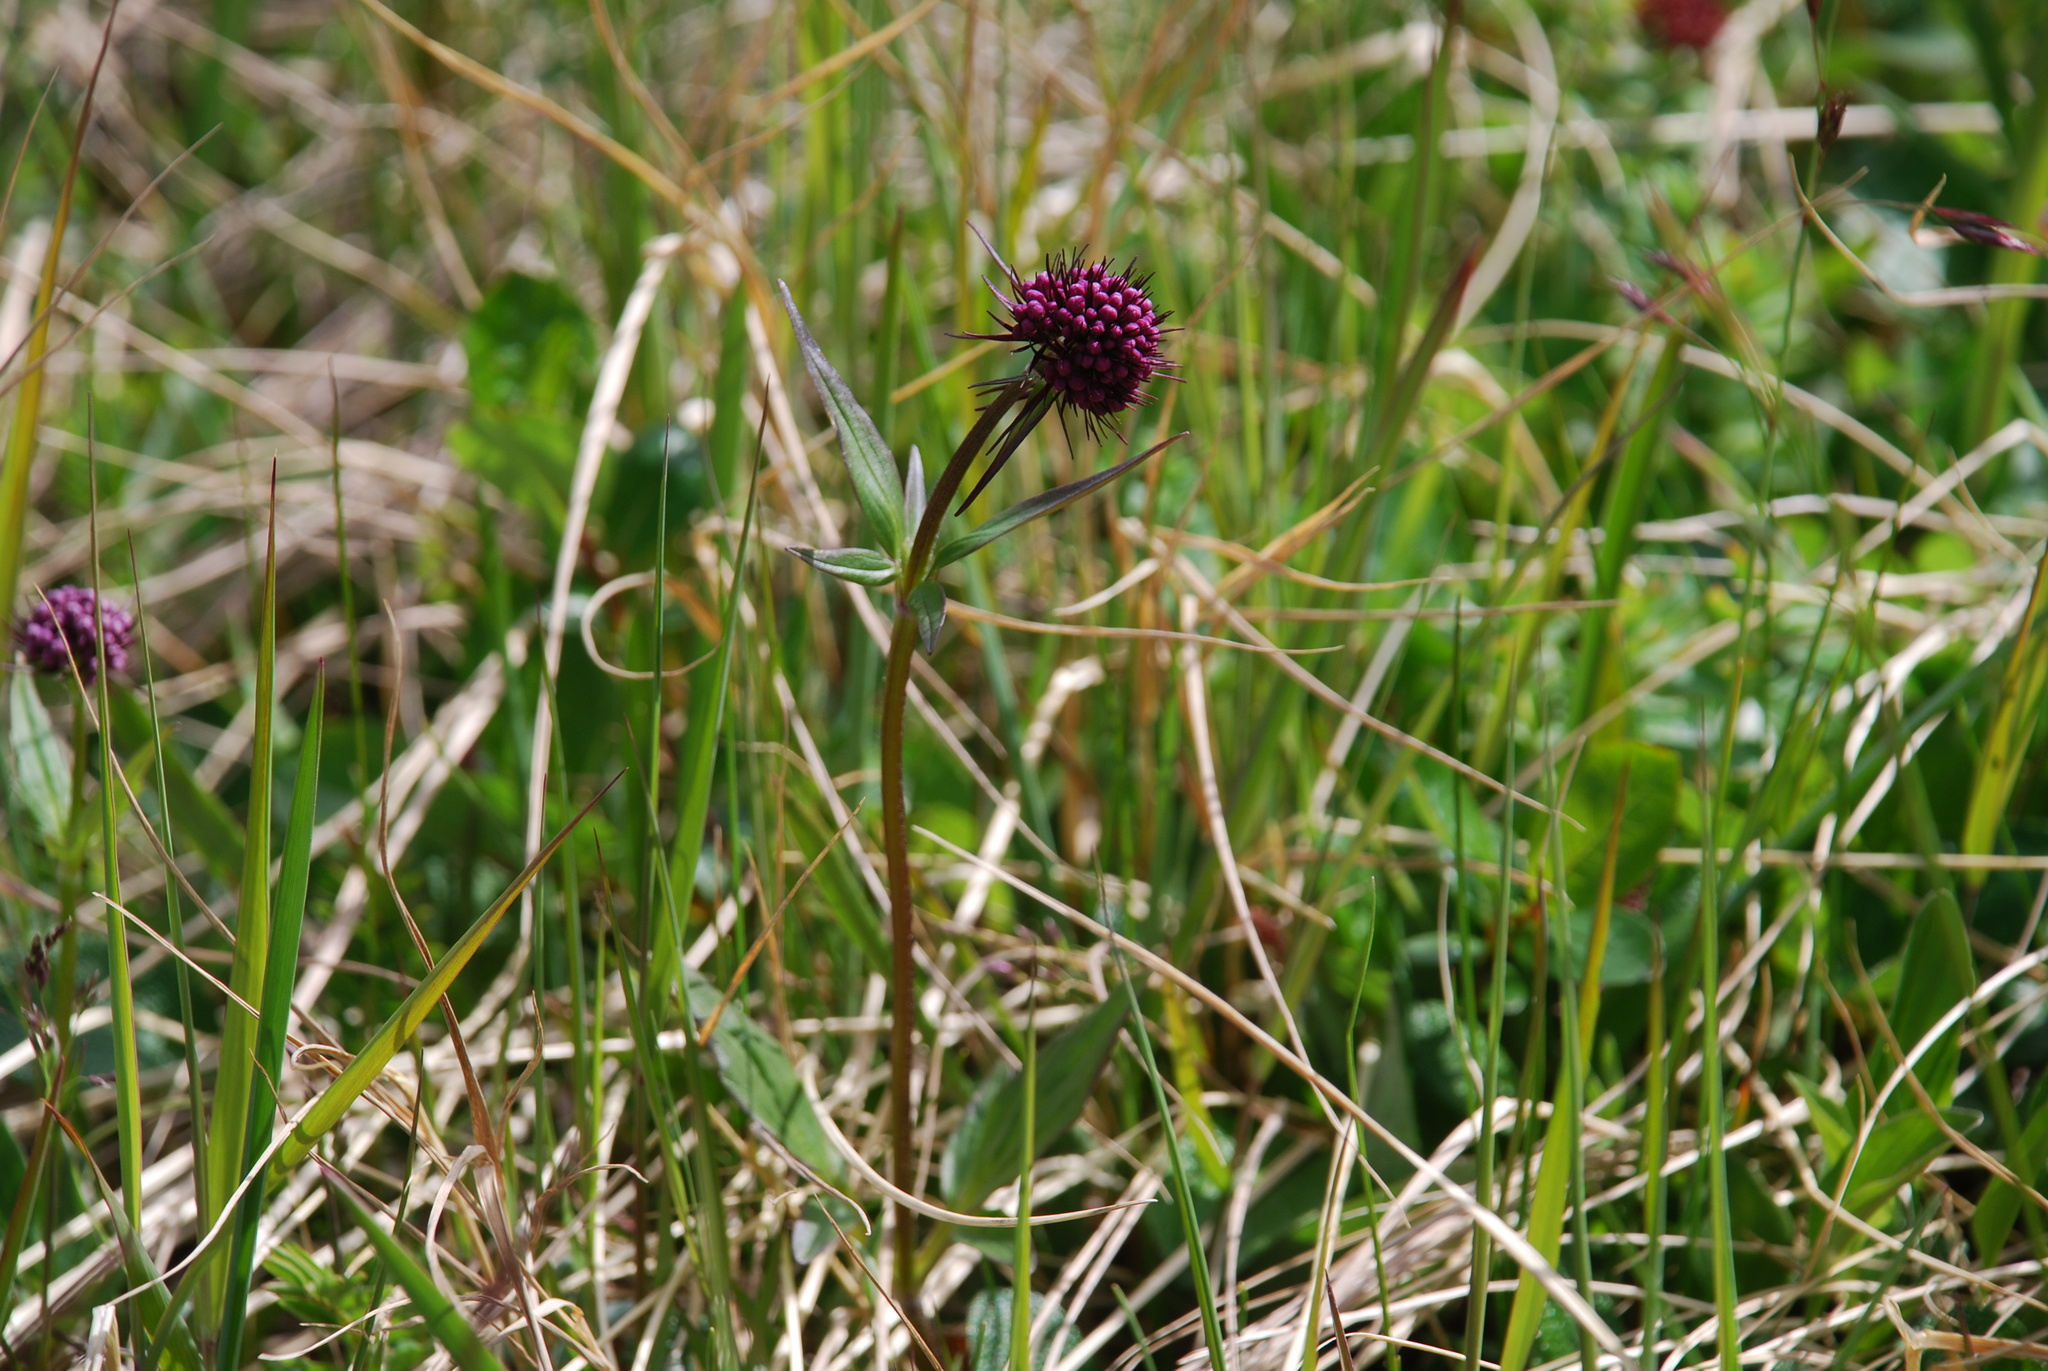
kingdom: Plantae
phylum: Tracheophyta
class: Magnoliopsida
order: Dipsacales
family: Caprifoliaceae
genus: Valeriana
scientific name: Valeriana capitata
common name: Capitate valerian
